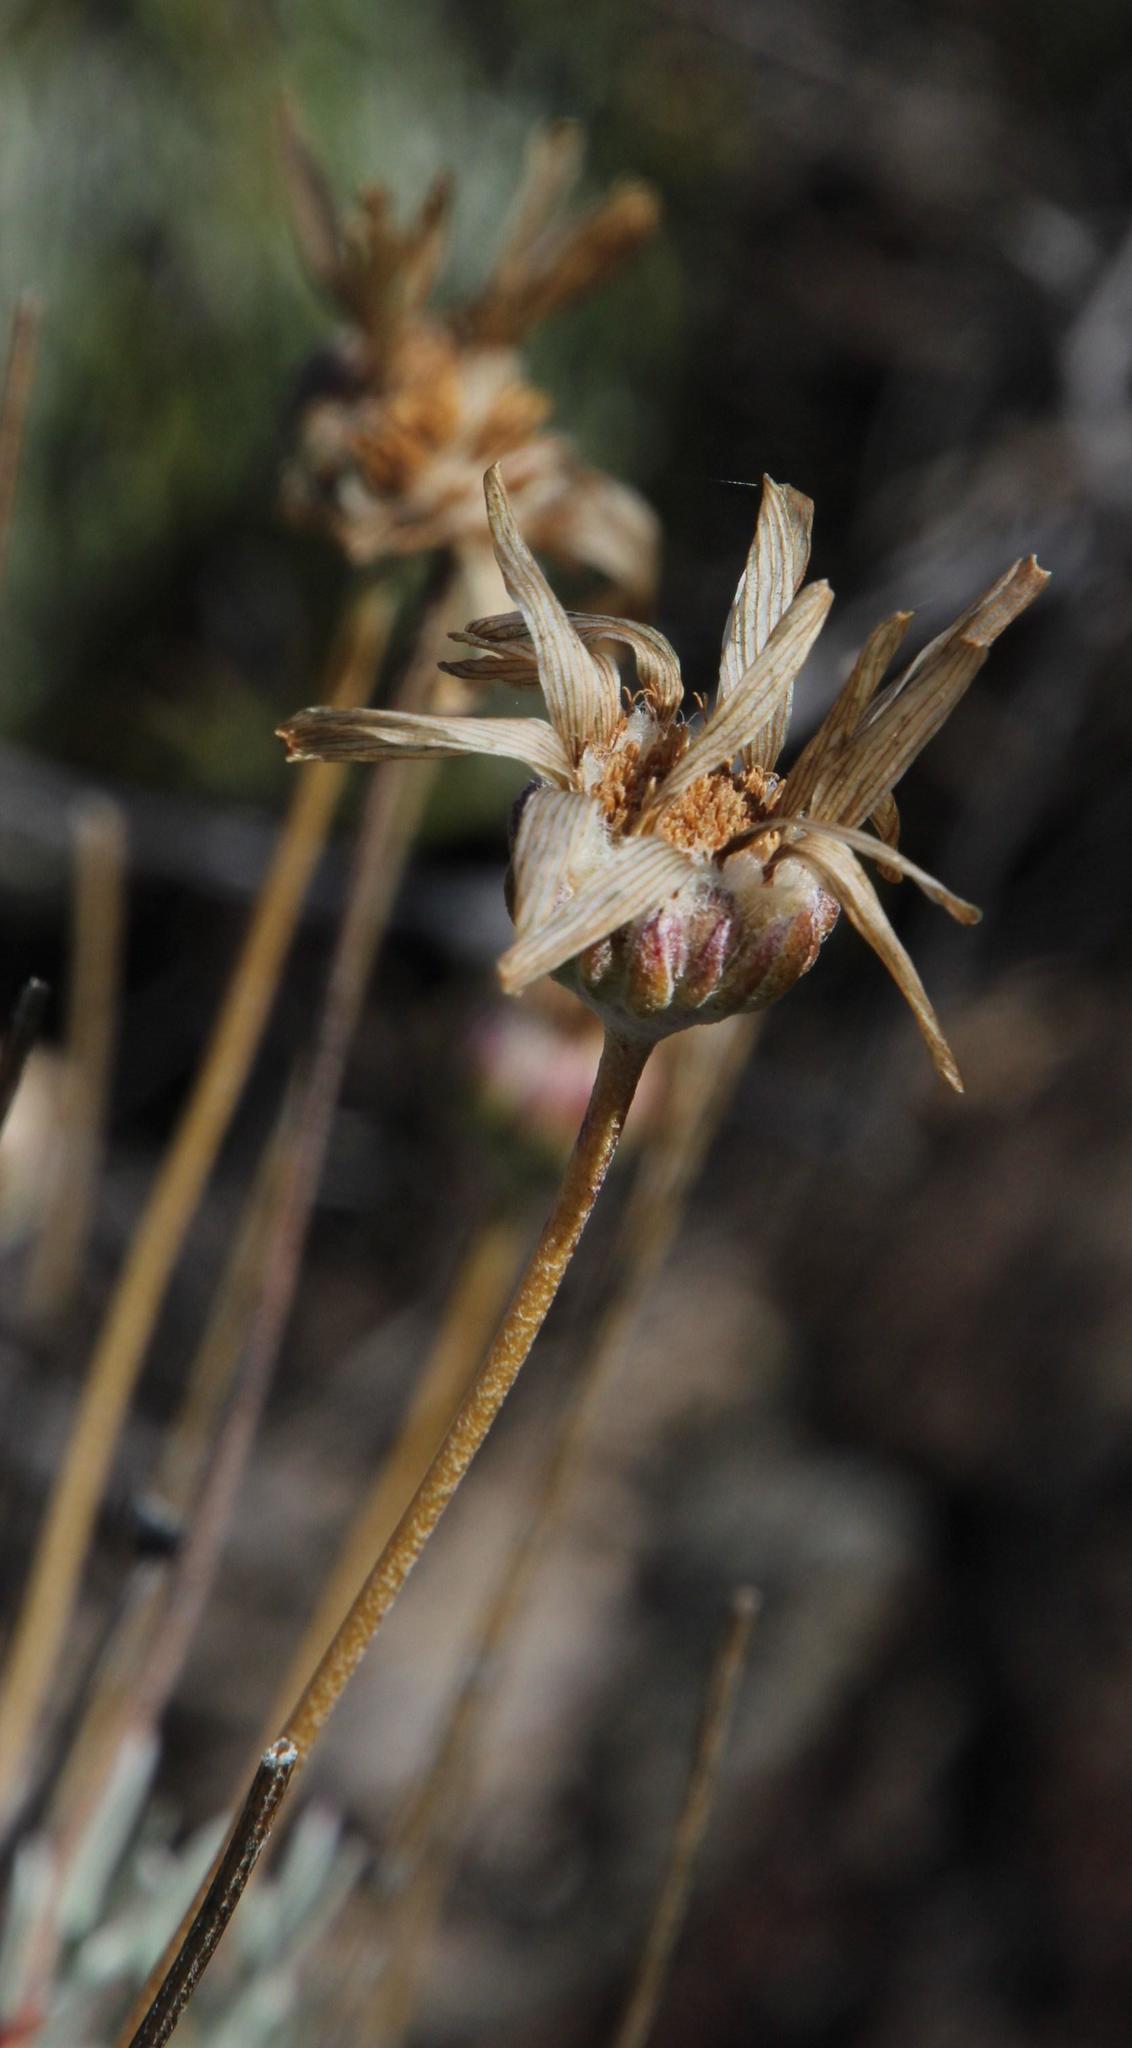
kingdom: Plantae
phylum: Tracheophyta
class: Magnoliopsida
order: Asterales
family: Asteraceae
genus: Euryops
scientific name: Euryops tagetoides
